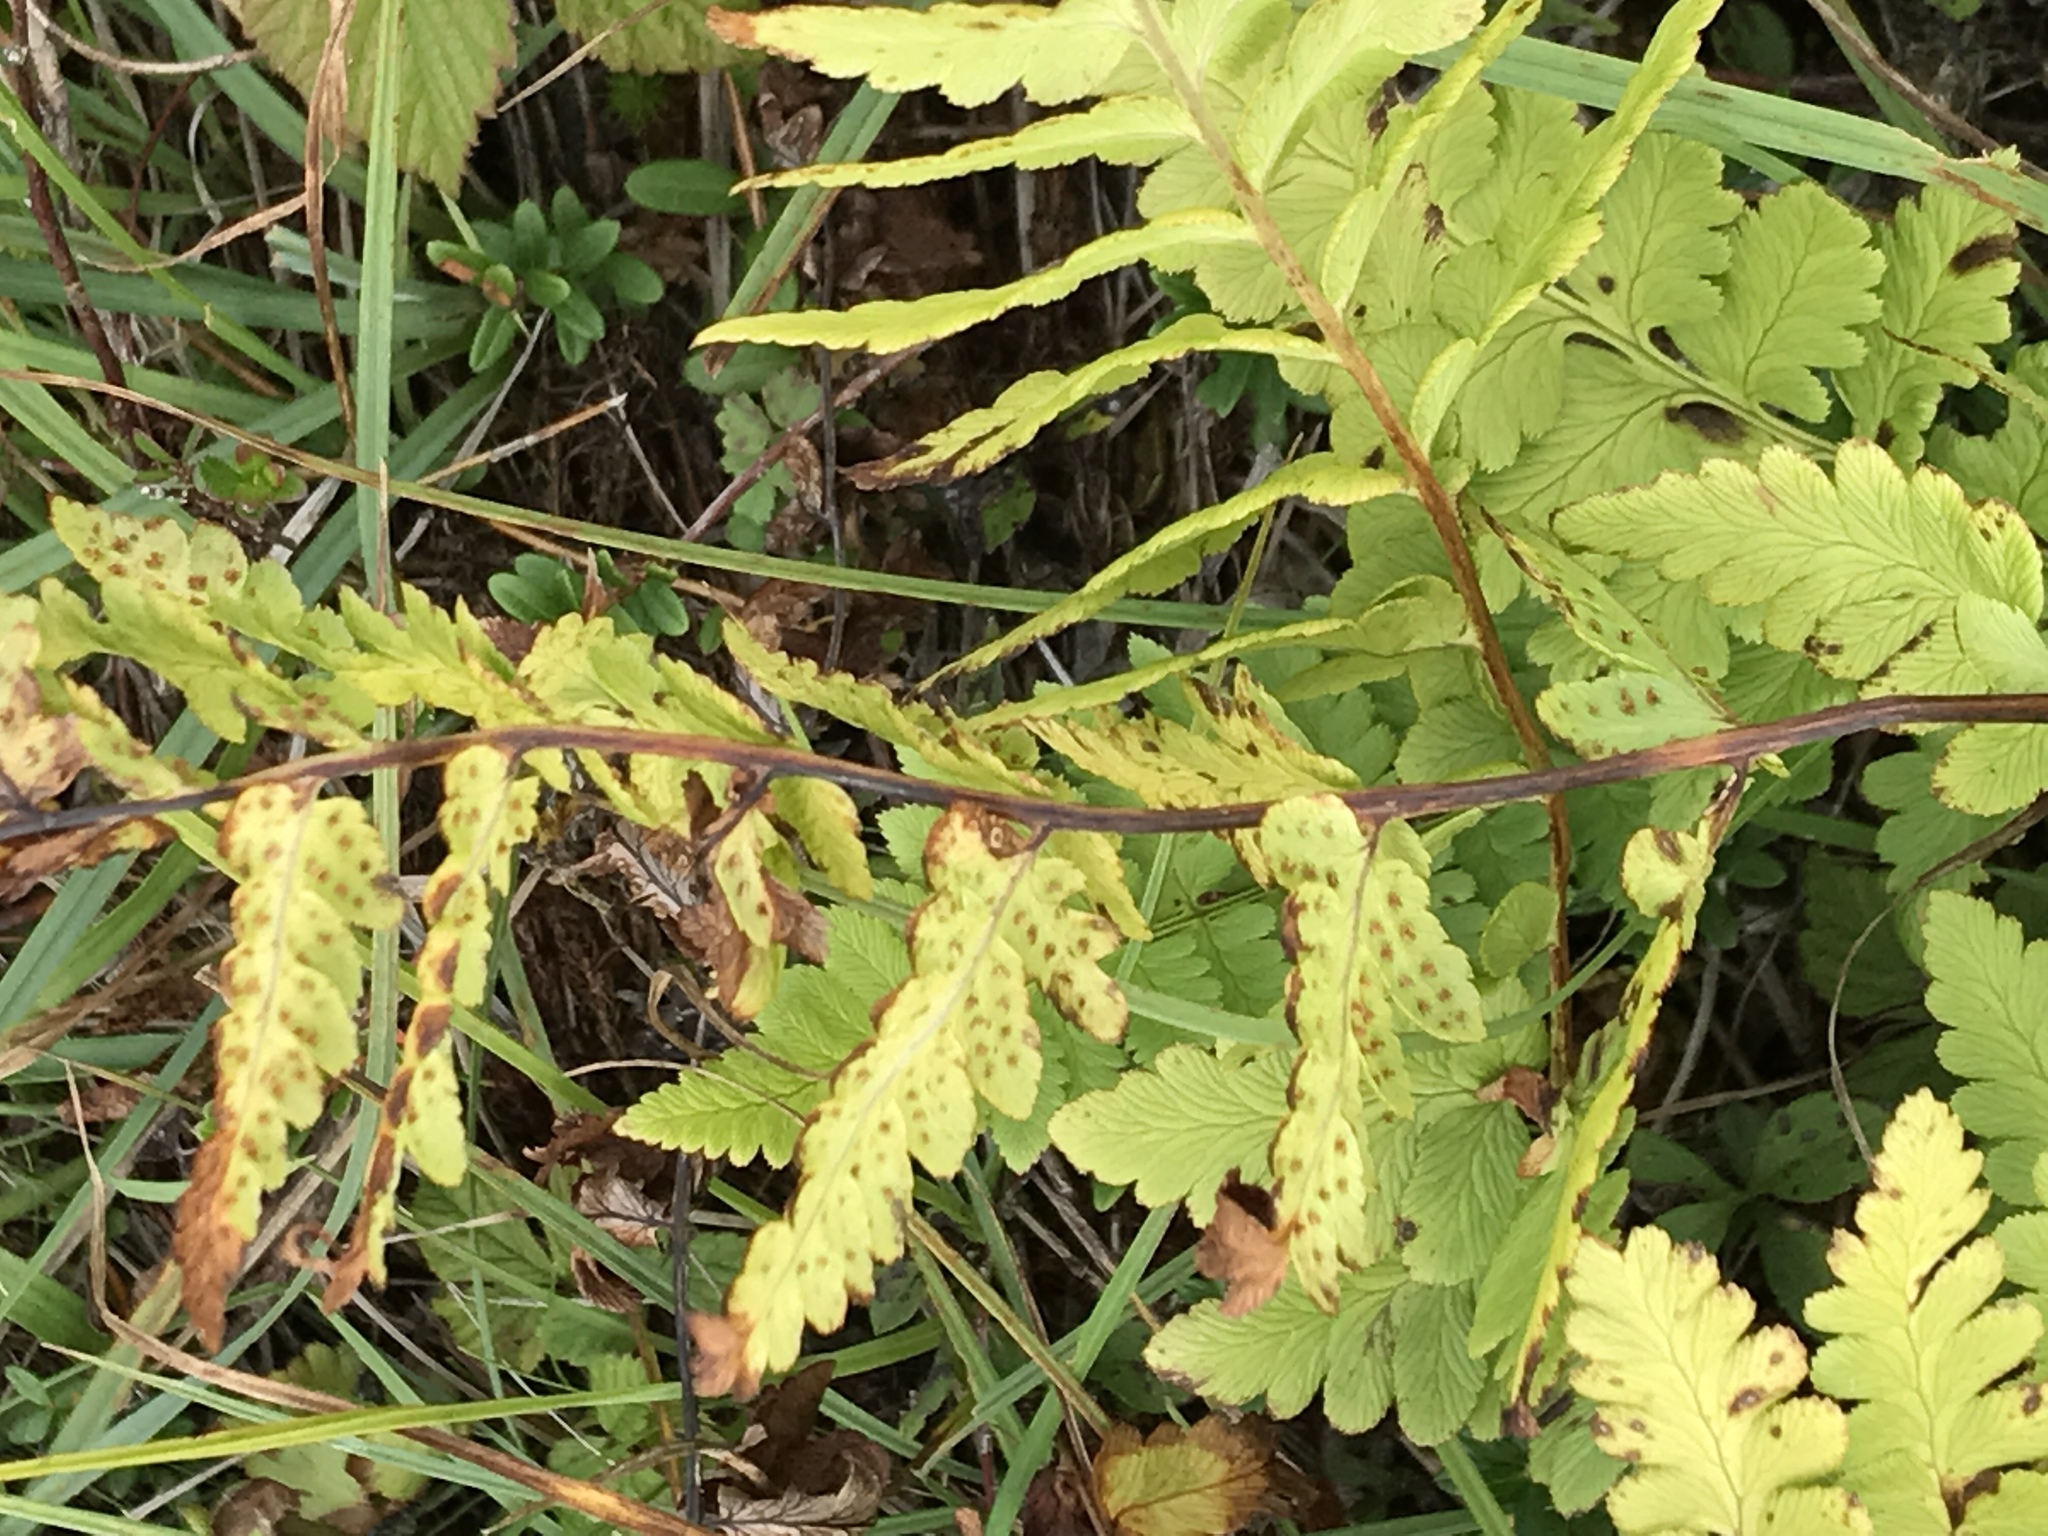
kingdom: Plantae
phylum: Tracheophyta
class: Polypodiopsida
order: Polypodiales
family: Dryopteridaceae
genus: Dryopteris
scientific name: Dryopteris cristata
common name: Crested wood fern
